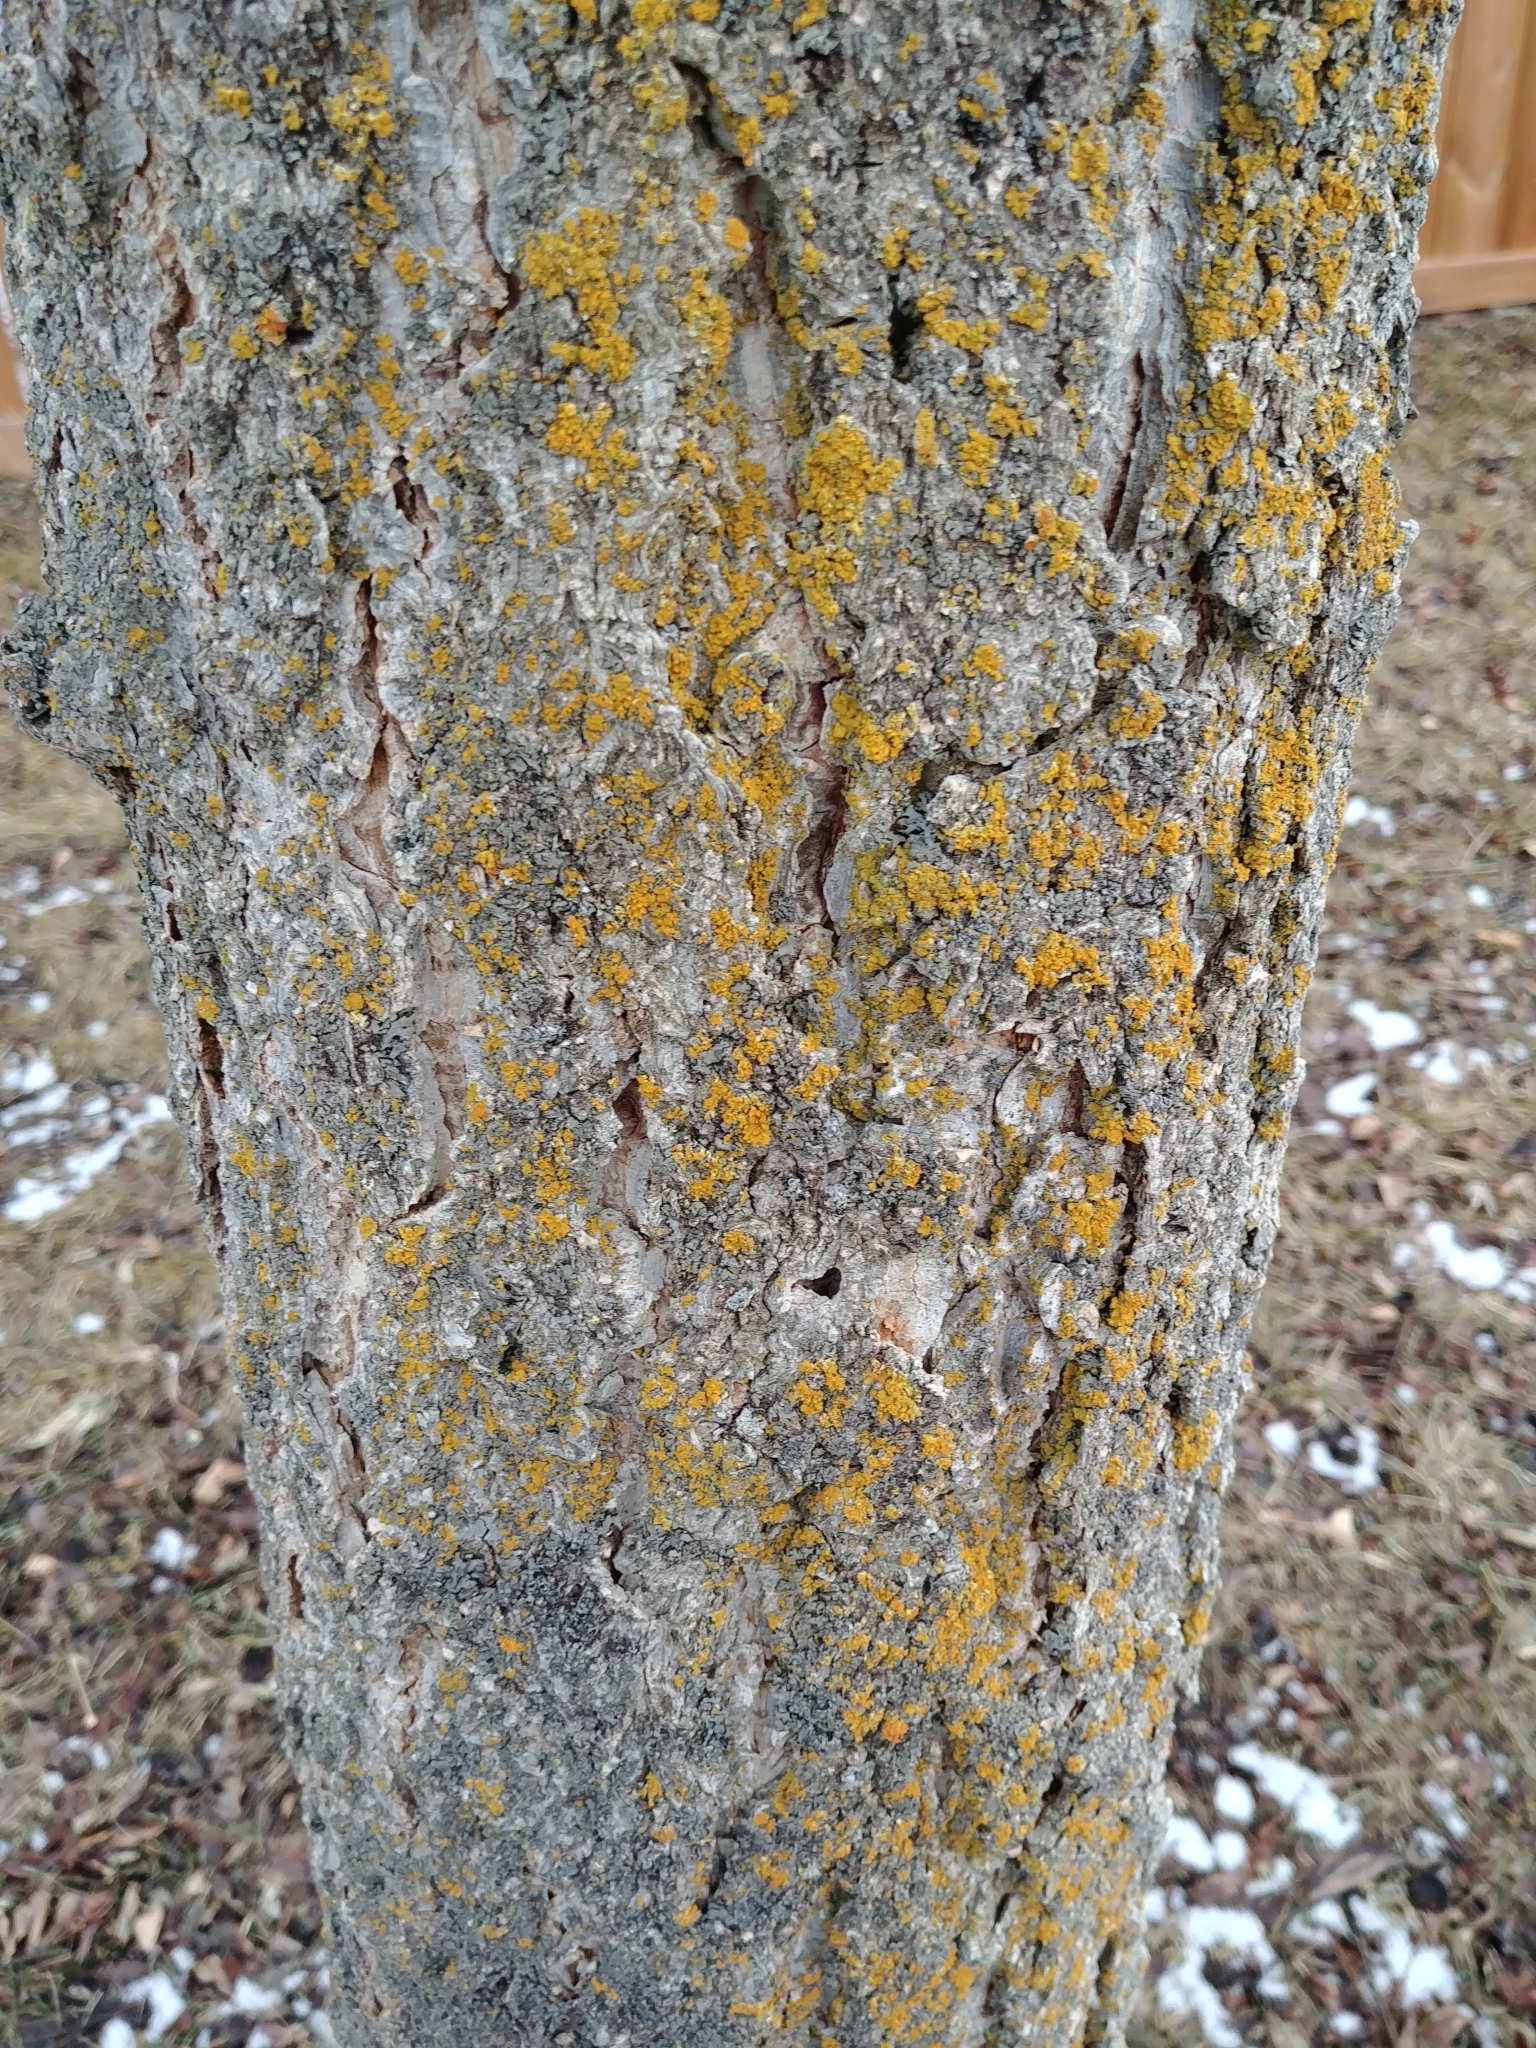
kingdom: Fungi
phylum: Ascomycota
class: Lecanoromycetes
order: Teloschistales
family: Teloschistaceae
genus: Oxneria
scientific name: Oxneria fallax
